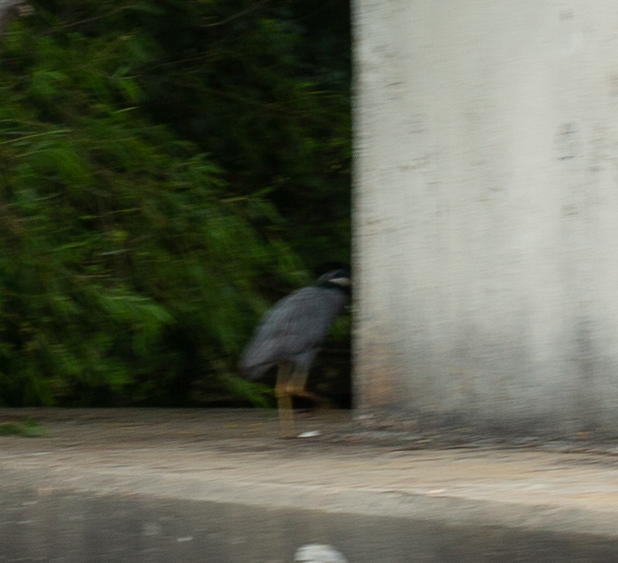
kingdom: Animalia
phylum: Chordata
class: Aves
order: Pelecaniformes
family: Ardeidae
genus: Nyctanassa
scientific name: Nyctanassa violacea
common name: Yellow-crowned night heron
